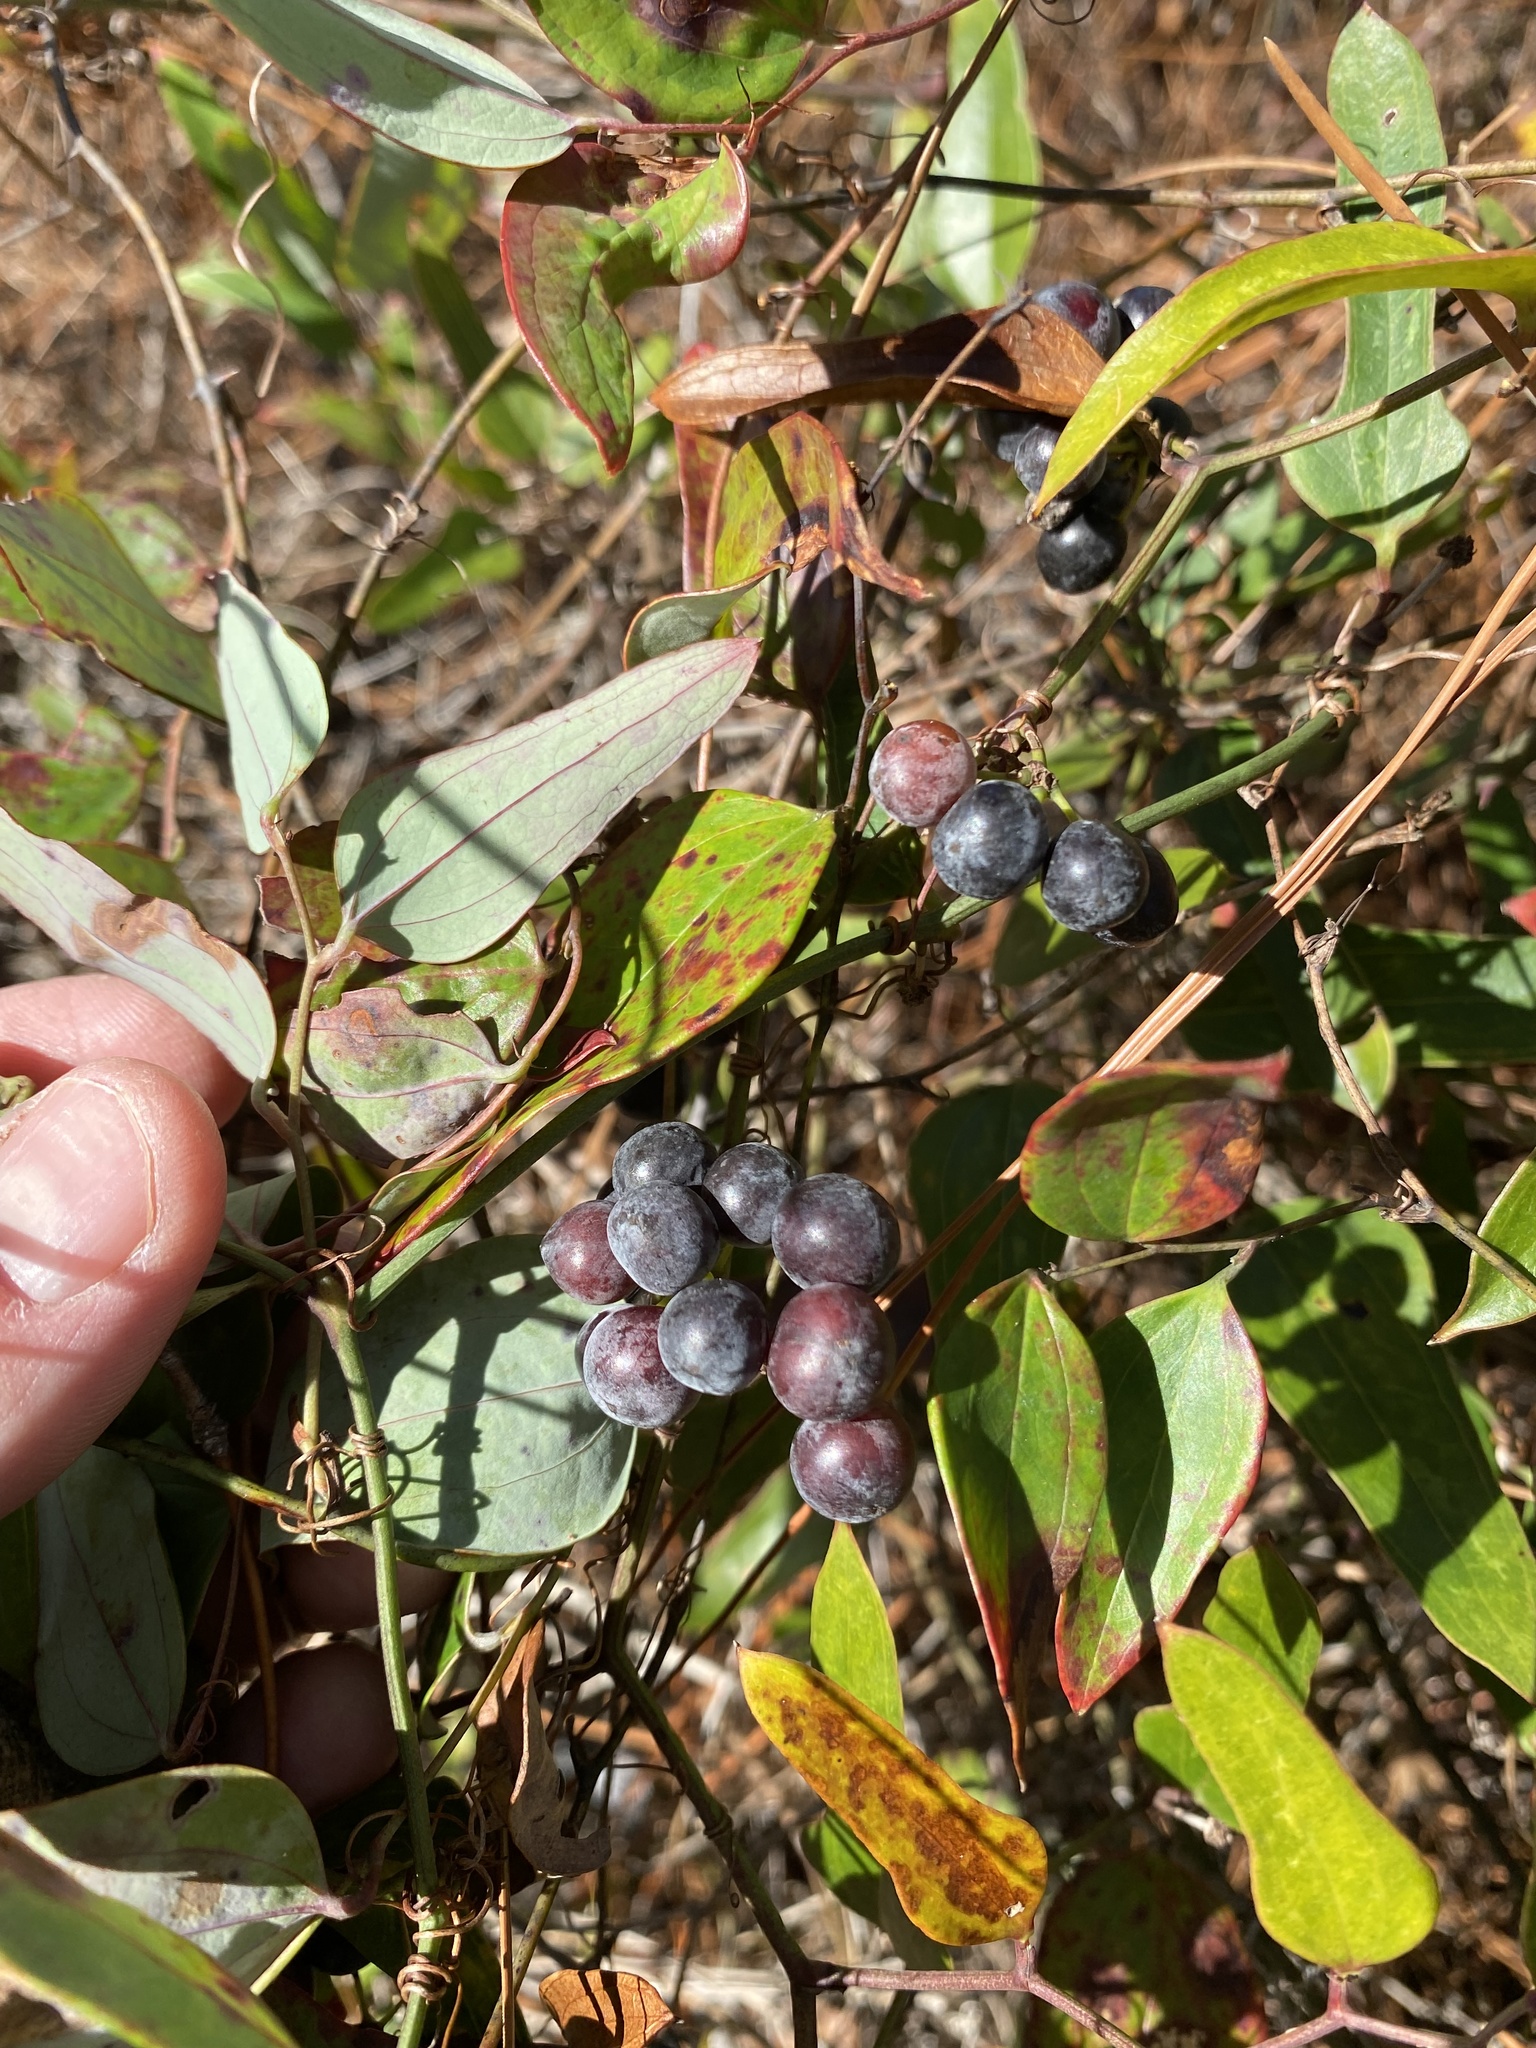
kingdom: Plantae
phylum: Tracheophyta
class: Liliopsida
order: Liliales
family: Smilacaceae
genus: Smilax
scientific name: Smilax glauca
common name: Cat greenbrier
